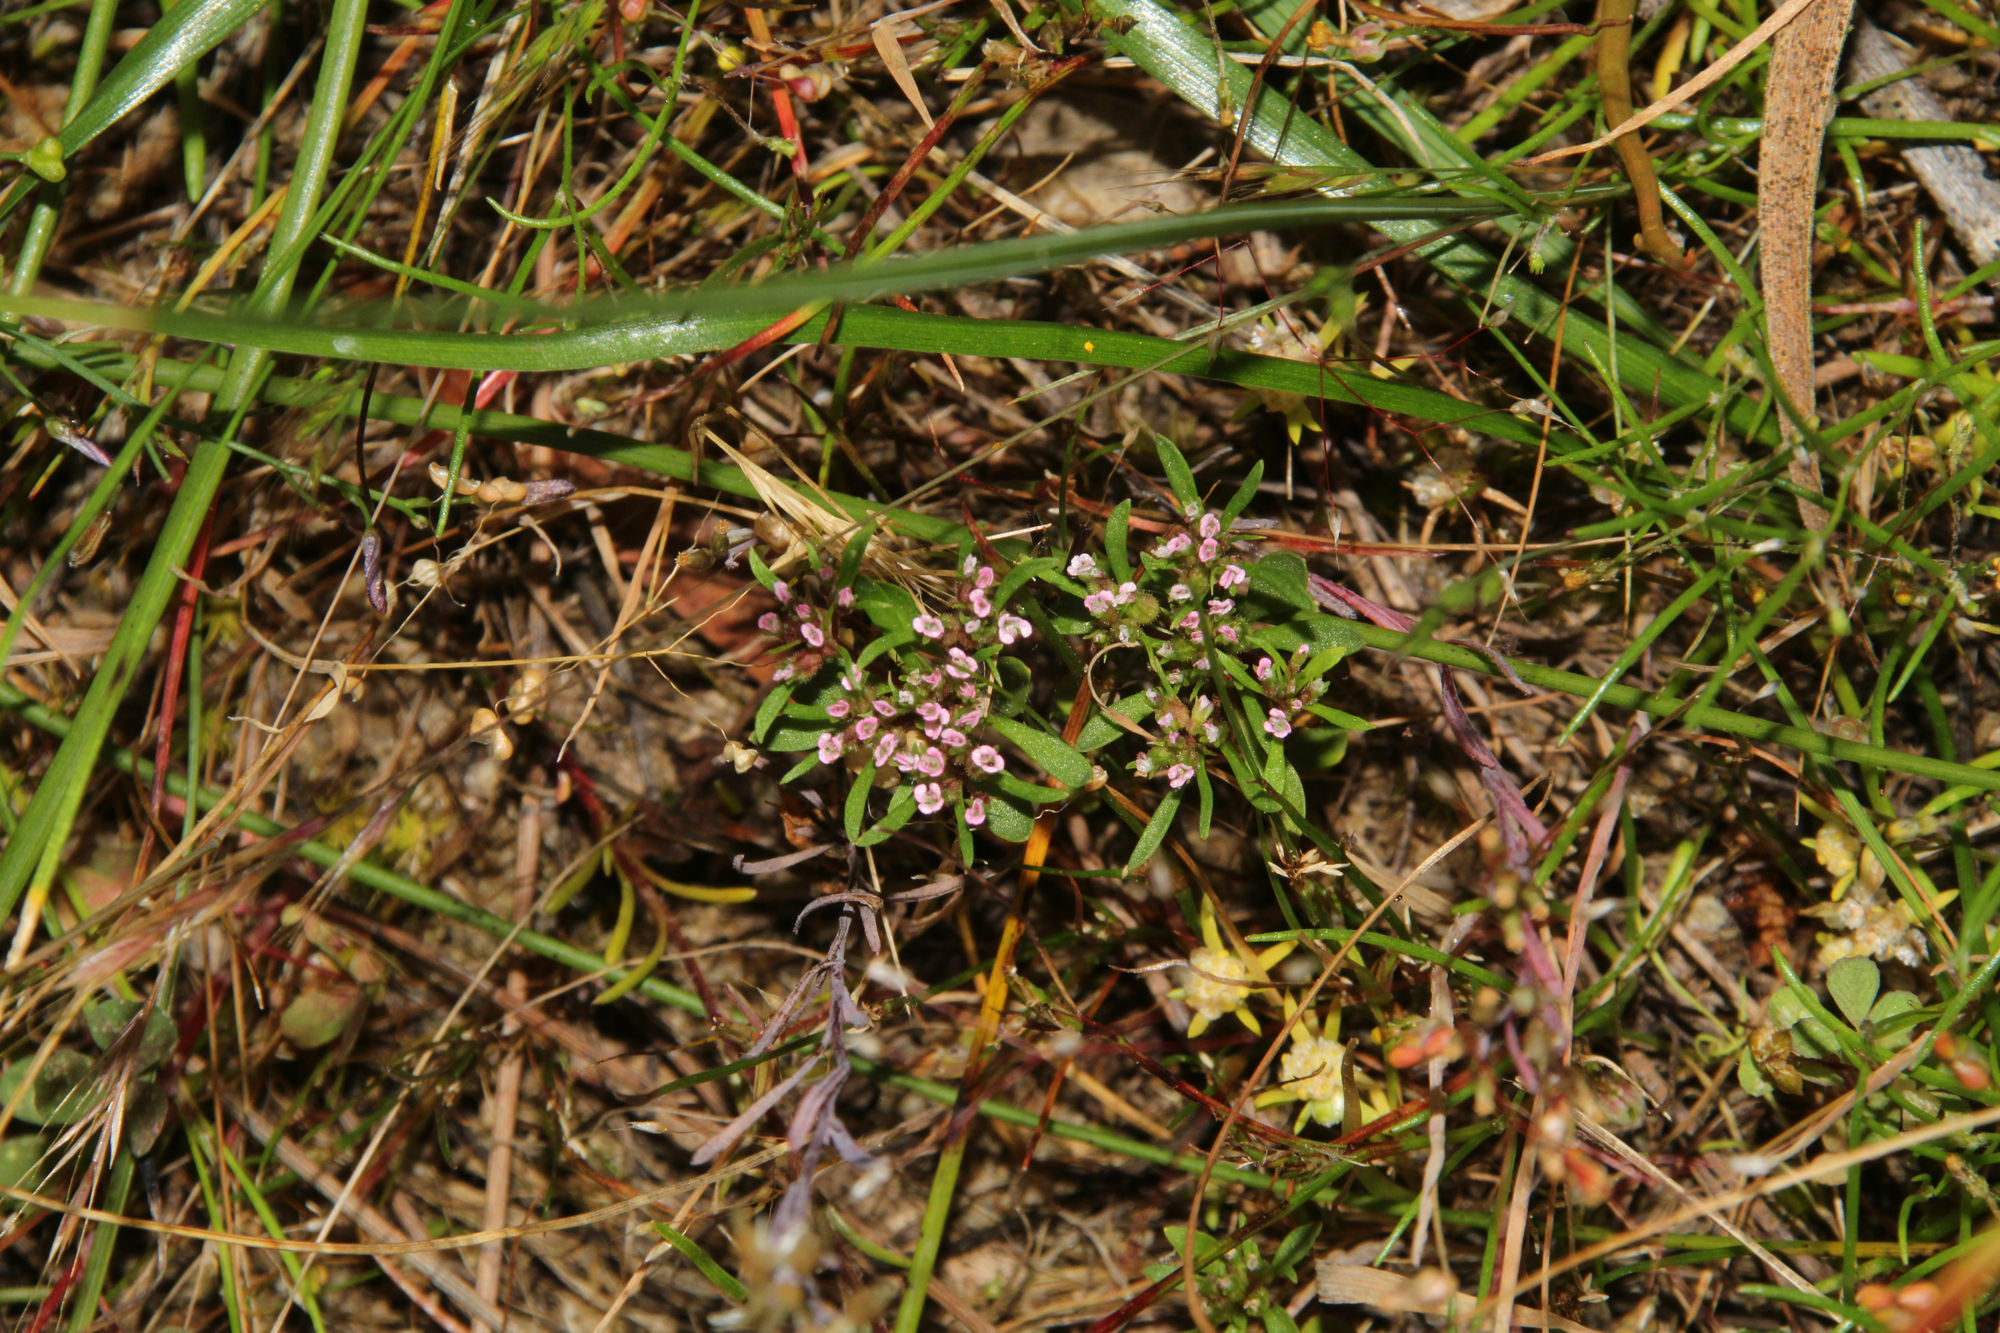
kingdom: Plantae
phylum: Tracheophyta
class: Magnoliopsida
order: Asterales
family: Stylidiaceae
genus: Levenhookia
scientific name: Levenhookia pusilla
